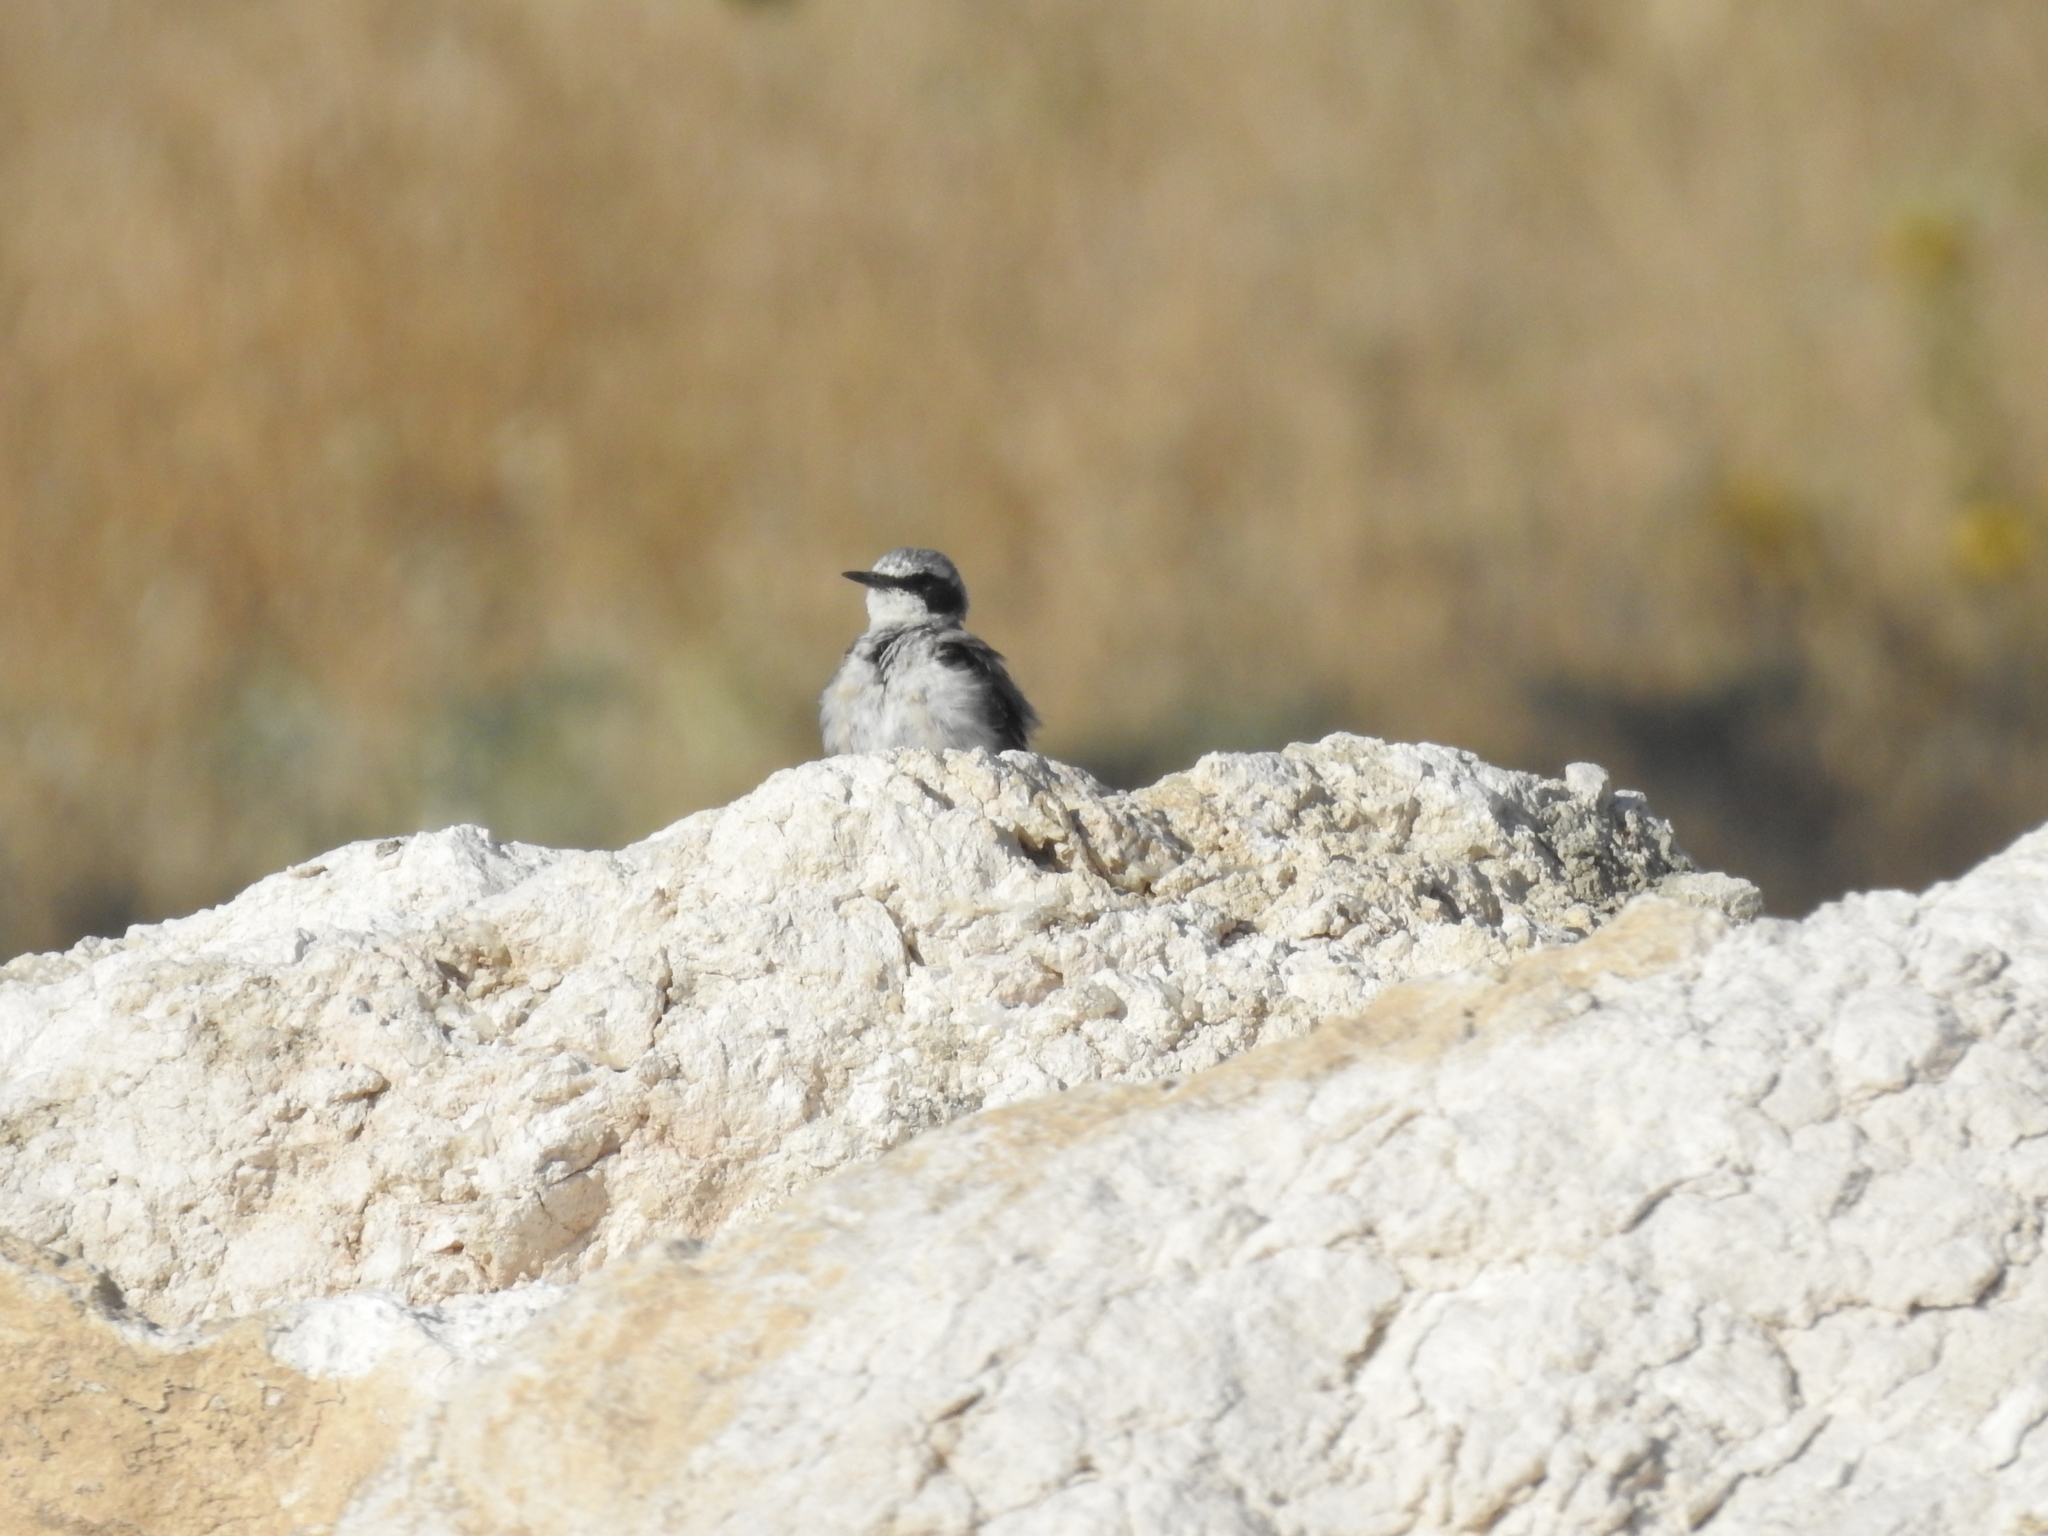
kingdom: Animalia
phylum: Chordata
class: Aves
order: Passeriformes
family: Muscicapidae
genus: Oenanthe
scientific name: Oenanthe oenanthe
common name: Northern wheatear
